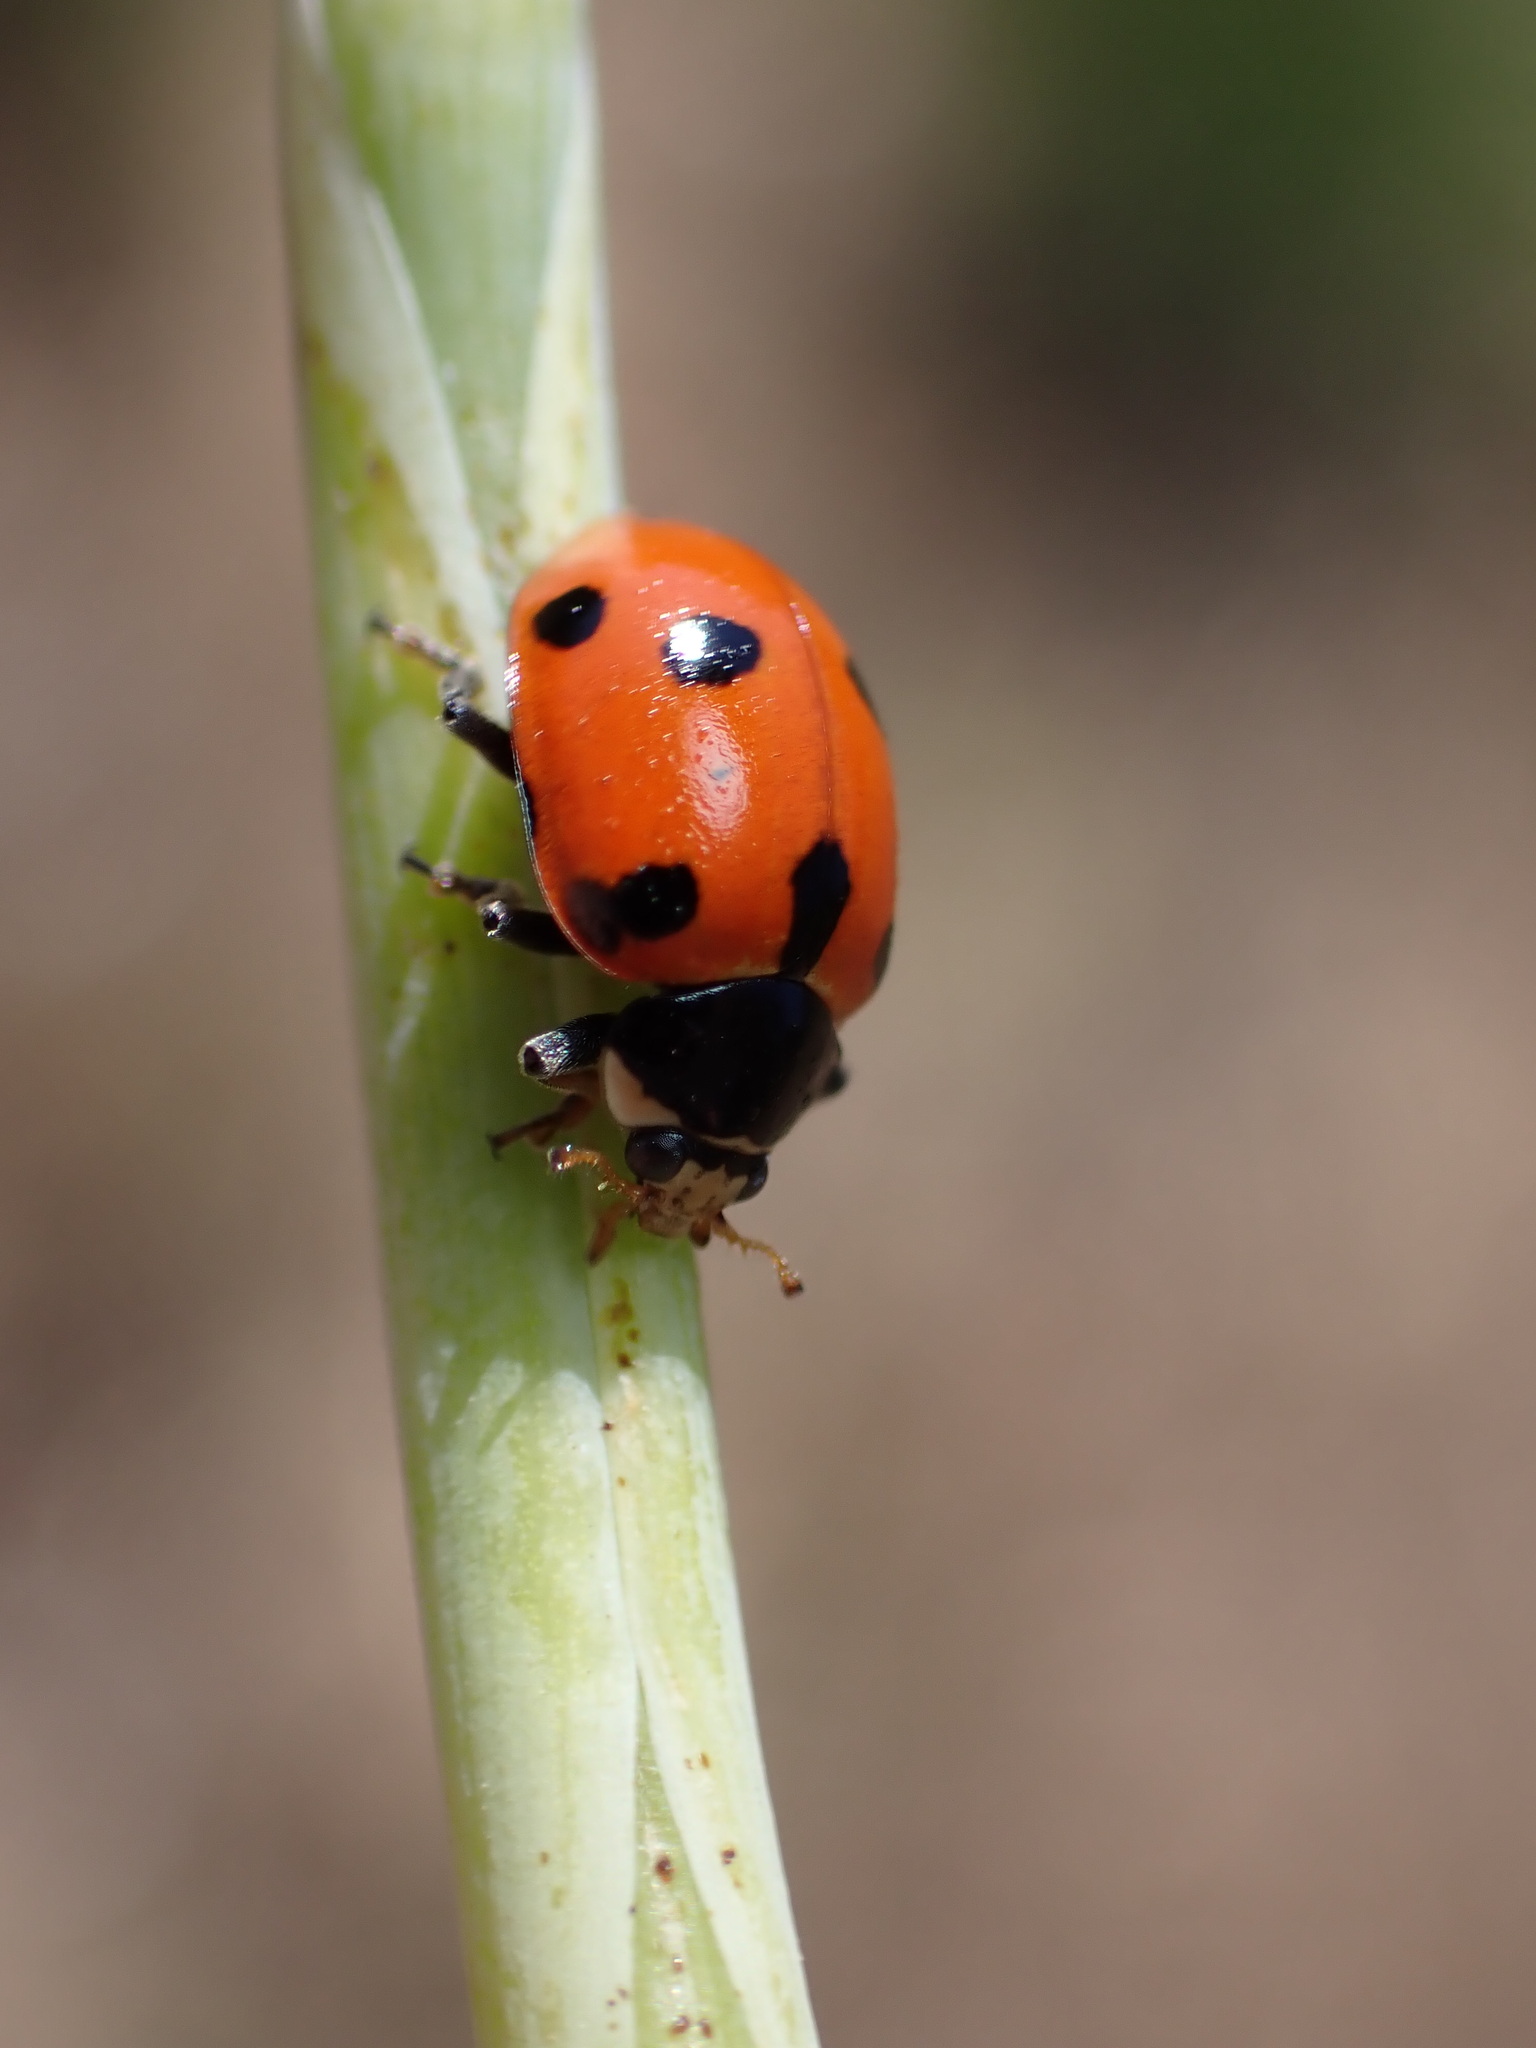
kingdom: Animalia
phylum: Arthropoda
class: Insecta
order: Coleoptera
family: Coccinellidae
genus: Ceratomegilla
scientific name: Ceratomegilla undecimnotata
